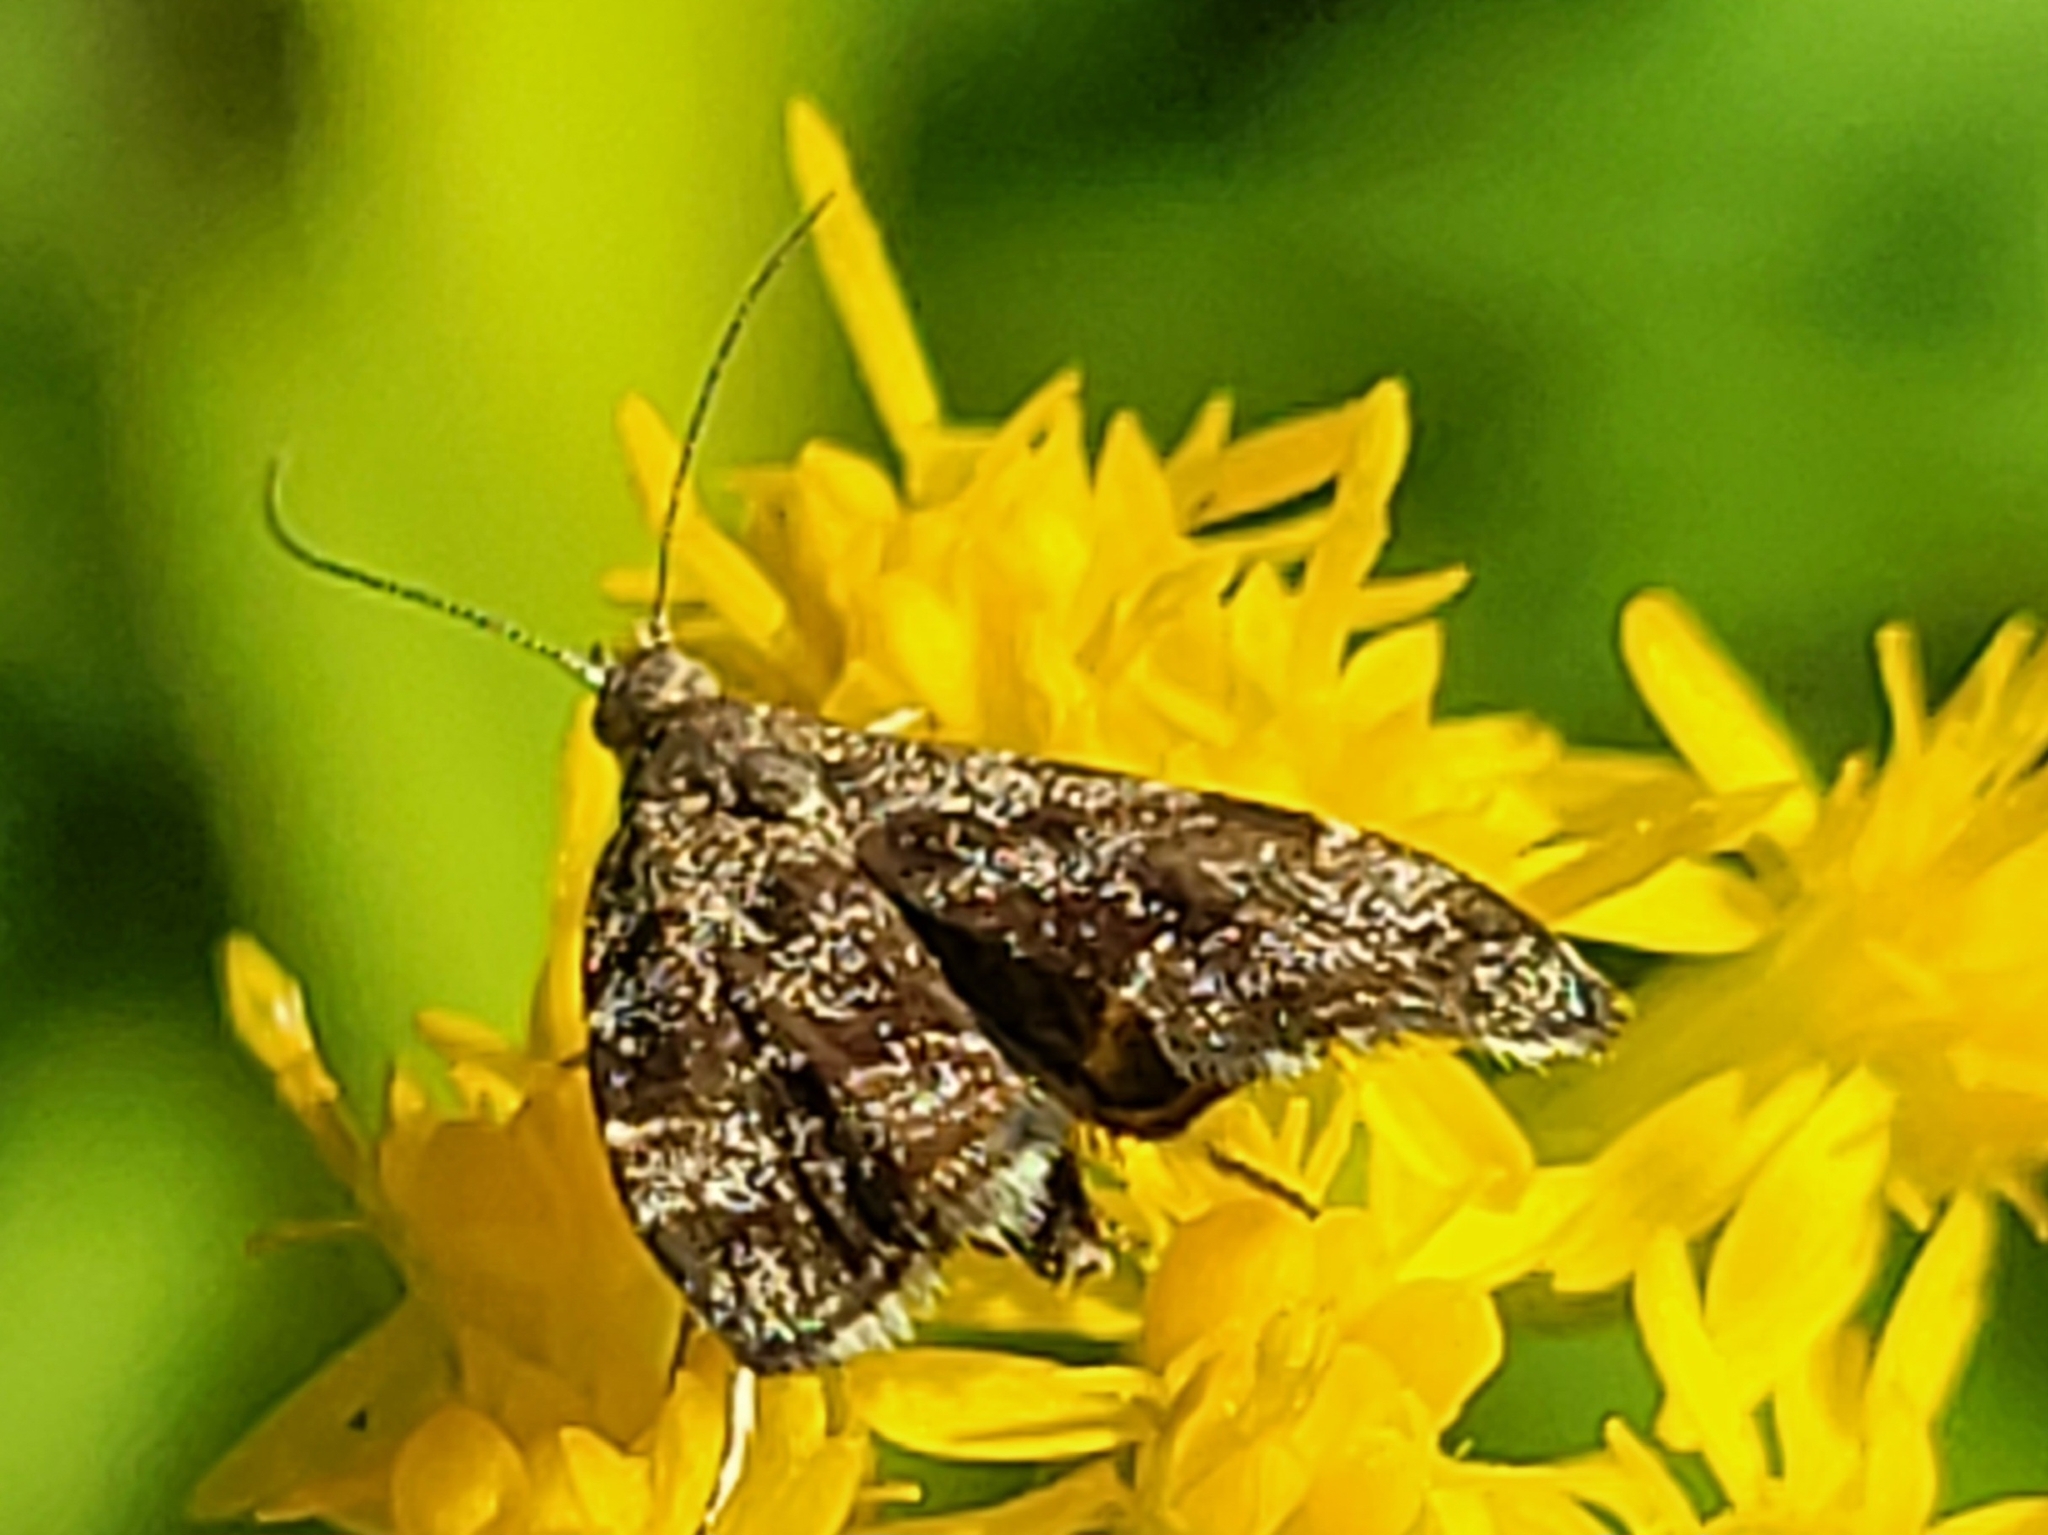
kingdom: Animalia
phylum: Arthropoda
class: Insecta
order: Lepidoptera
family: Choreutidae
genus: Anthophila
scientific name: Anthophila fabriciana
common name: Nettle-tap
